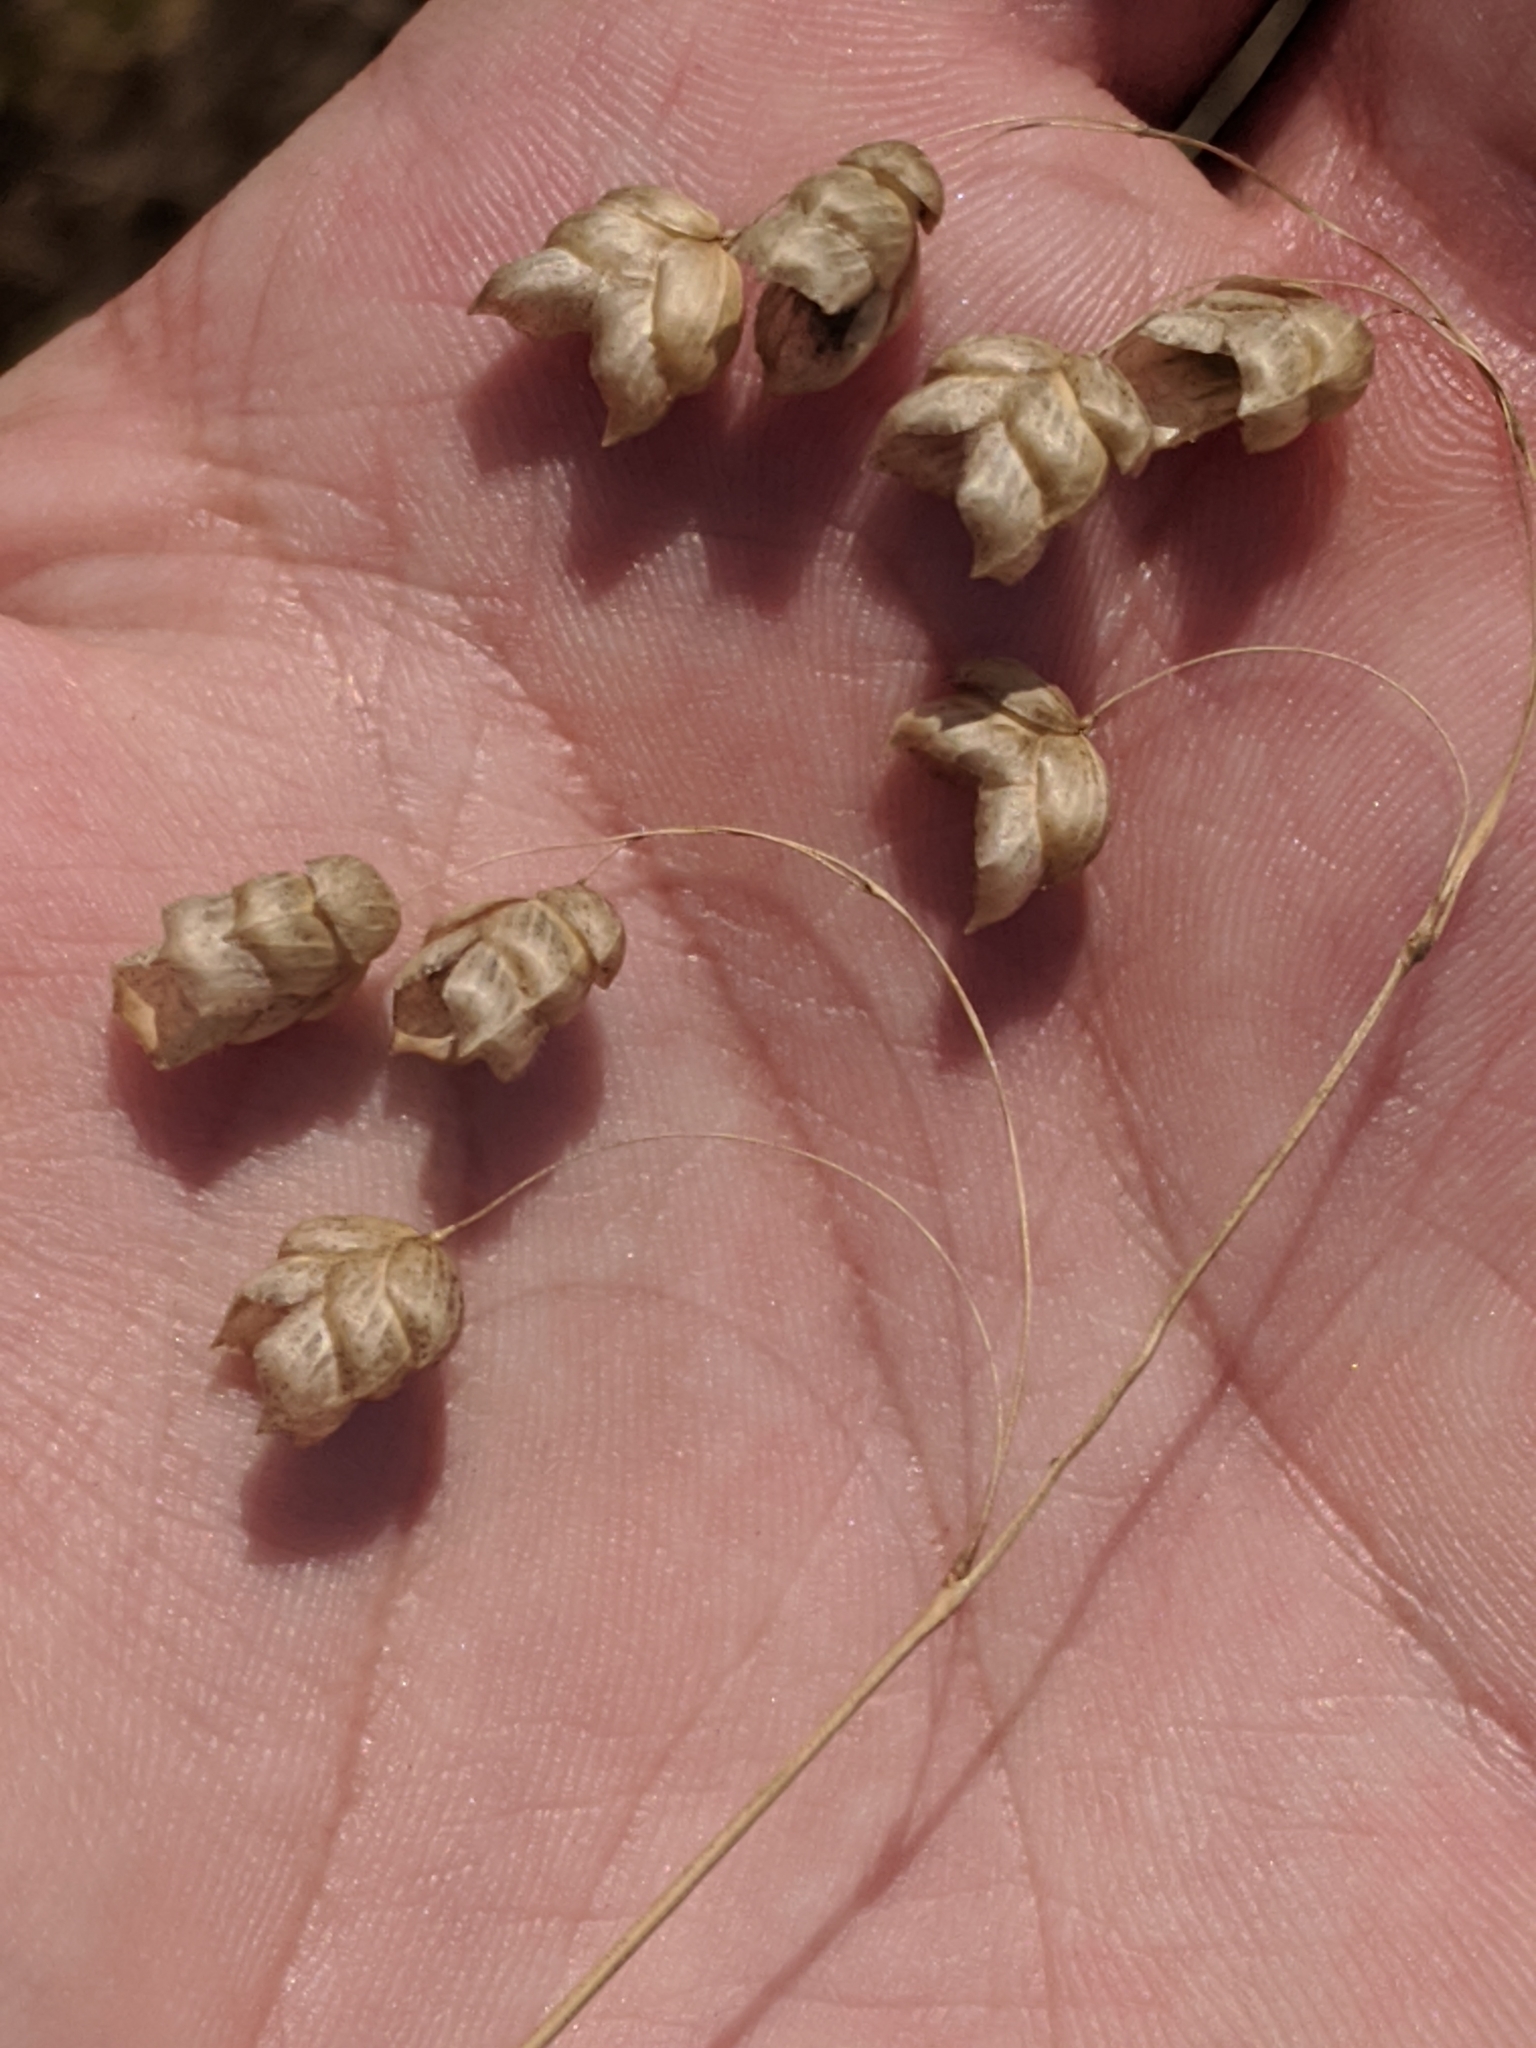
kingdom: Plantae
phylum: Tracheophyta
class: Liliopsida
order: Poales
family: Poaceae
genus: Briza
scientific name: Briza maxima
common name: Big quakinggrass
